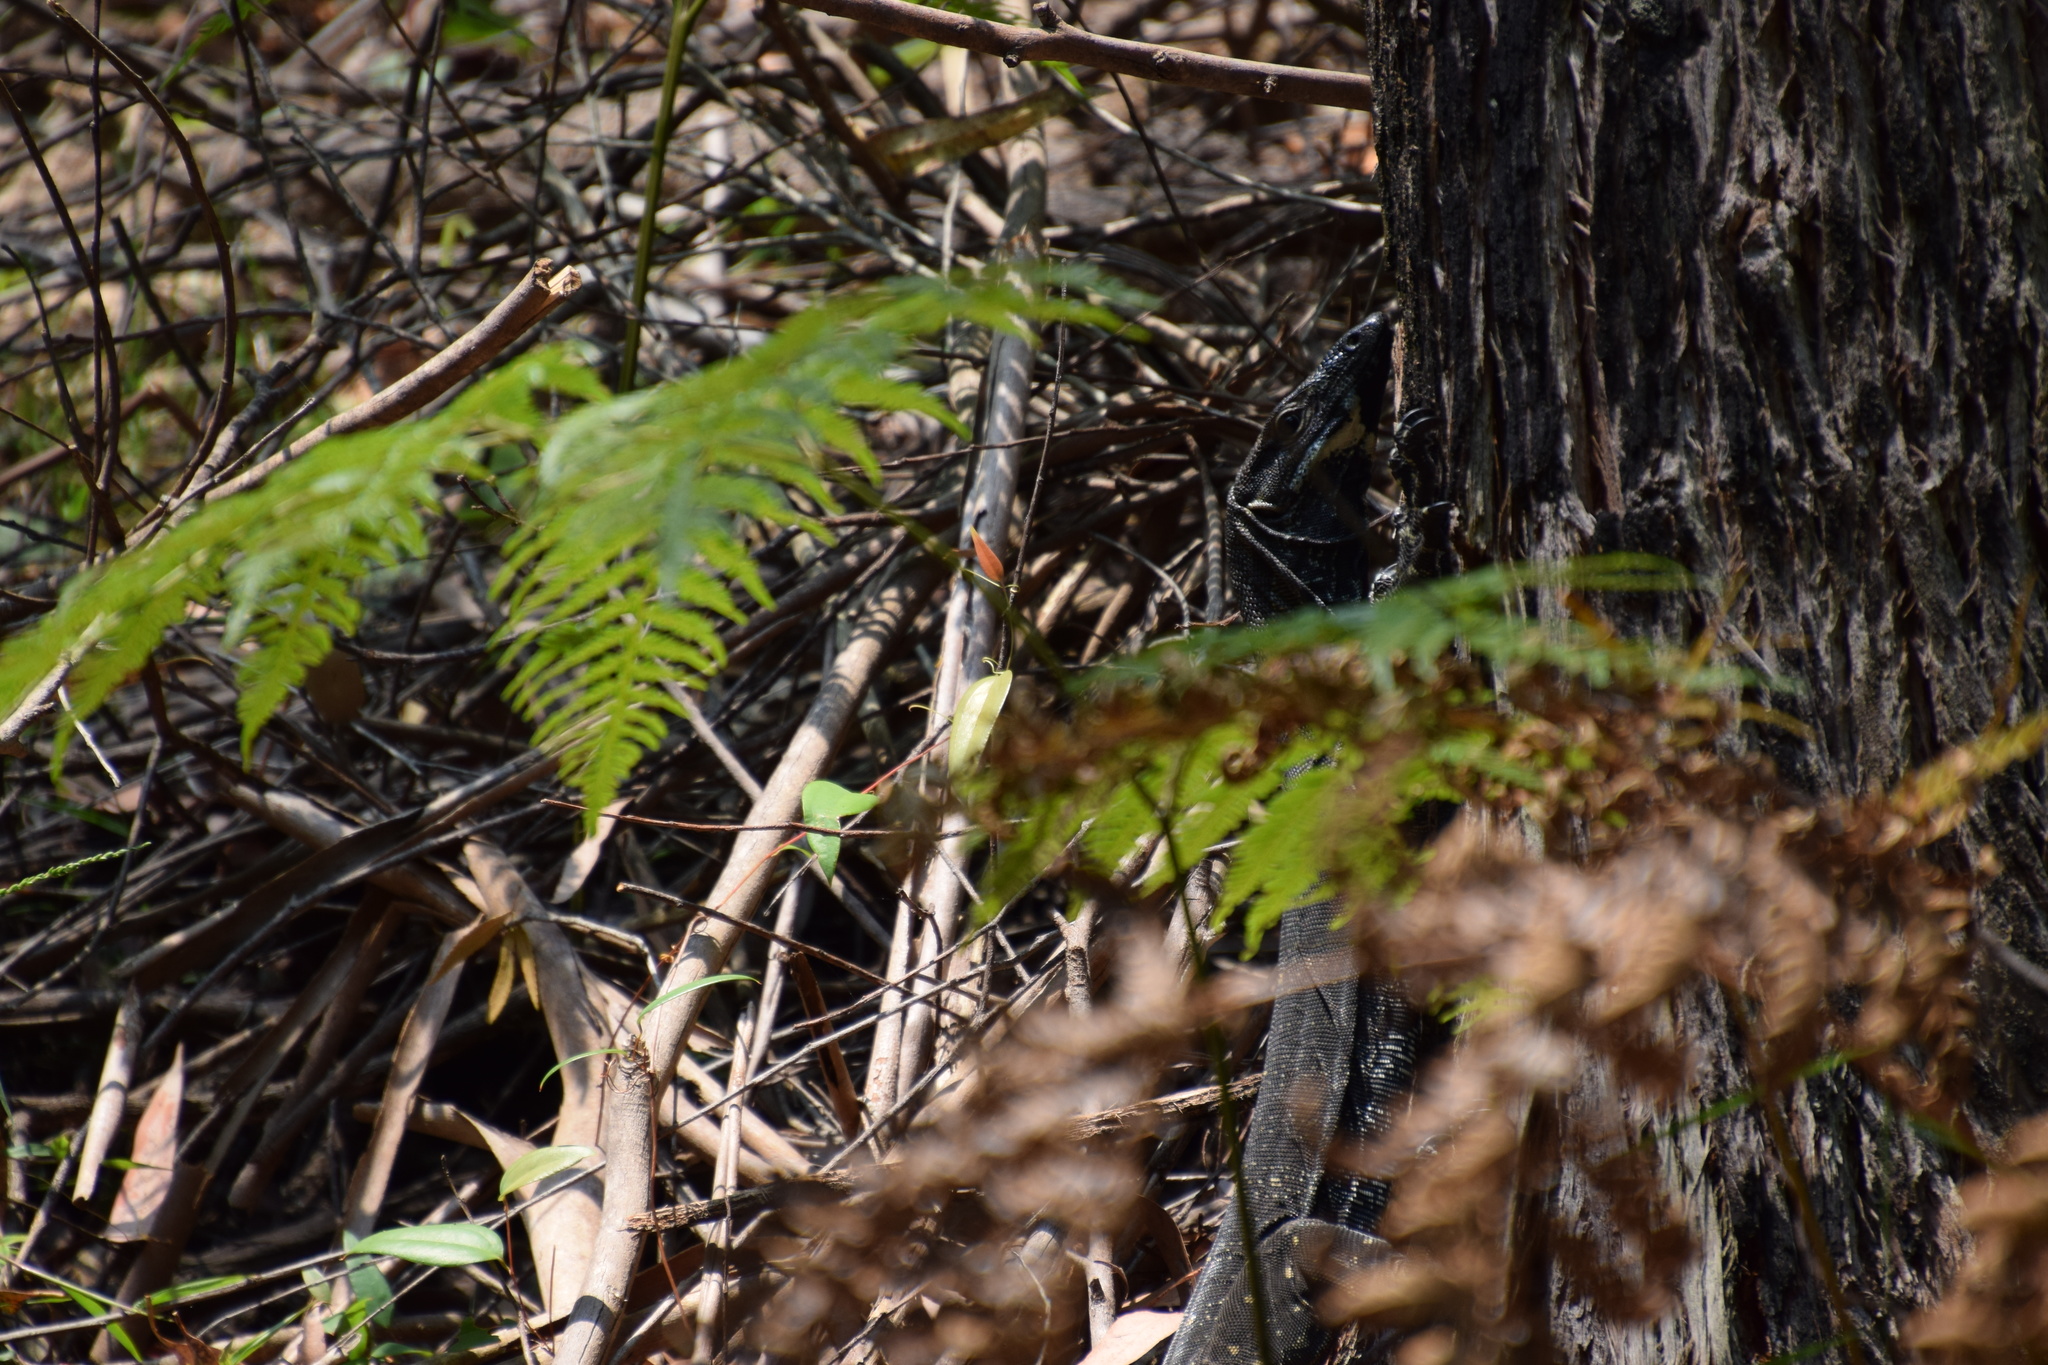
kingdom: Animalia
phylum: Chordata
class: Squamata
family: Varanidae
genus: Varanus
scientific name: Varanus varius
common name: Lace monitor
